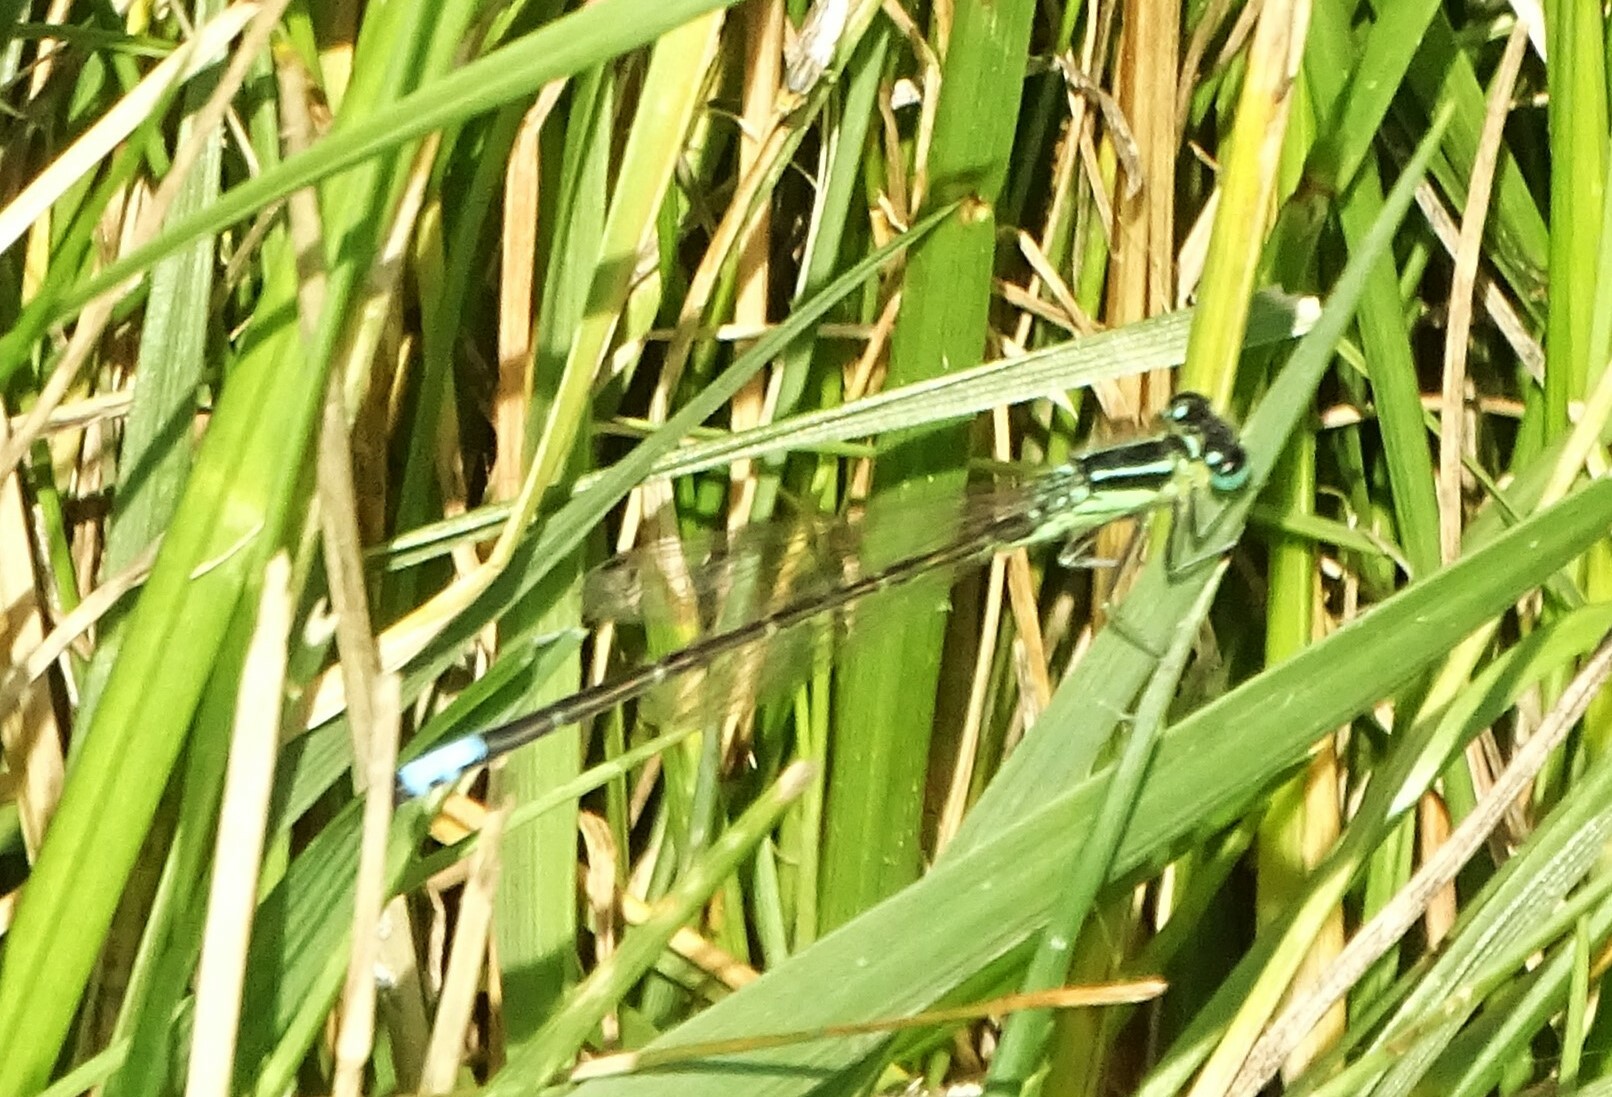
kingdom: Animalia
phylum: Arthropoda
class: Insecta
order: Odonata
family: Coenagrionidae
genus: Ischnura
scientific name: Ischnura verticalis
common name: Eastern forktail
